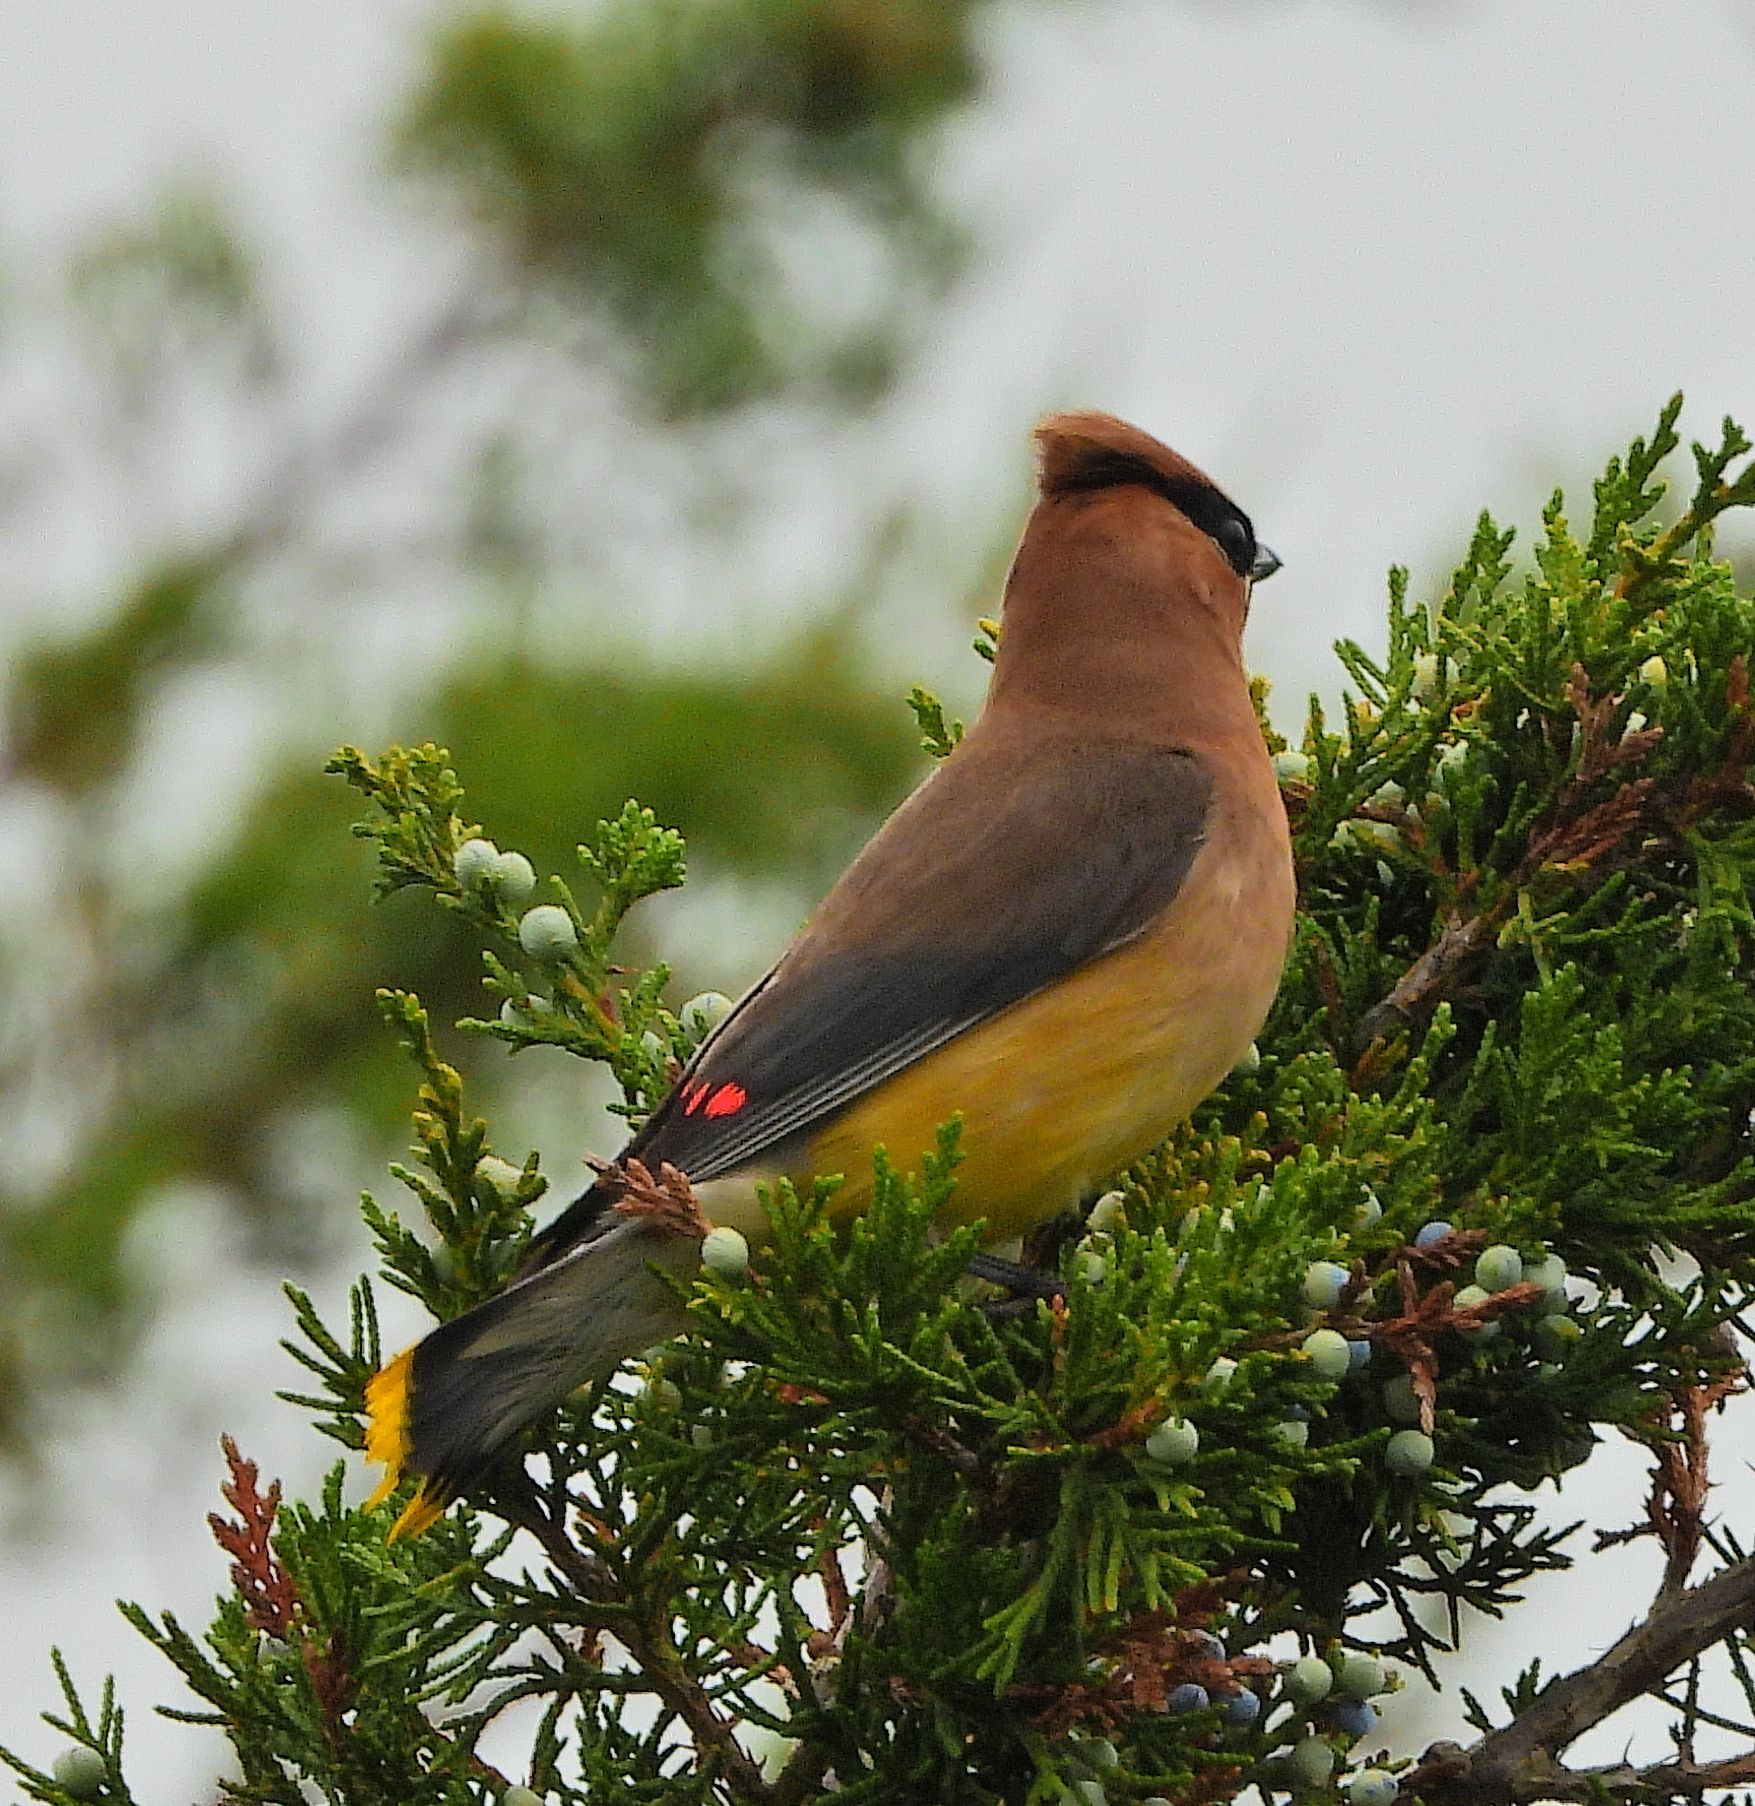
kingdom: Animalia
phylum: Chordata
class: Aves
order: Passeriformes
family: Bombycillidae
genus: Bombycilla
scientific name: Bombycilla cedrorum
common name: Cedar waxwing
